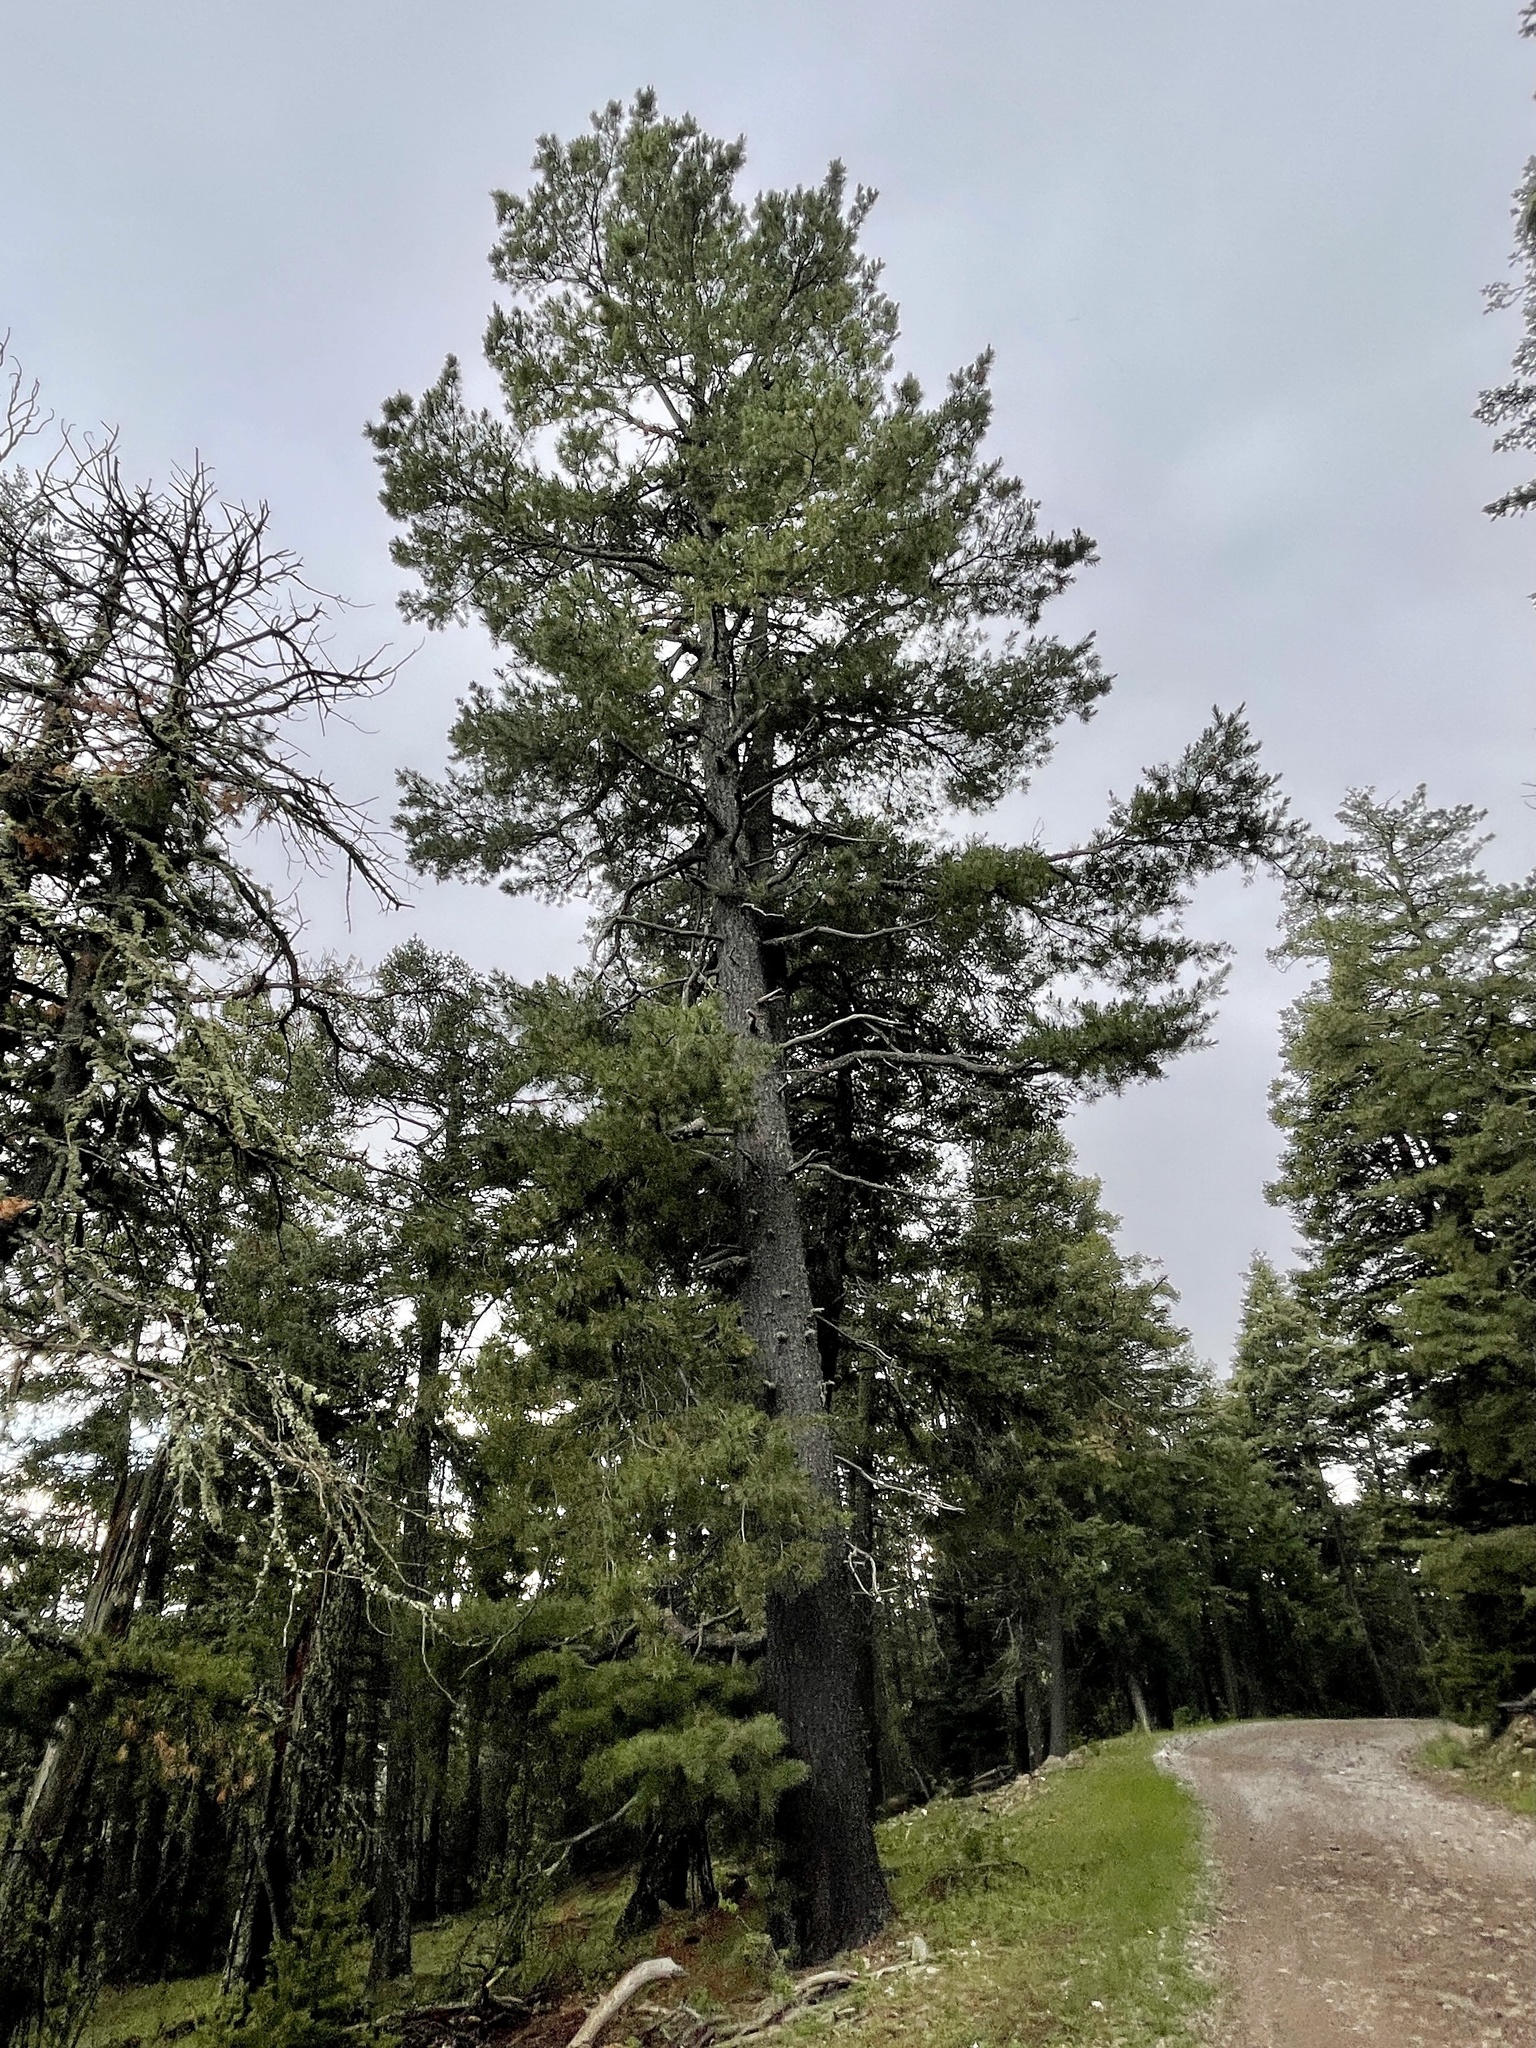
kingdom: Plantae
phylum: Tracheophyta
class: Pinopsida
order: Pinales
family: Pinaceae
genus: Pinus
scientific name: Pinus strobiformis
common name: Southwestern white pine
